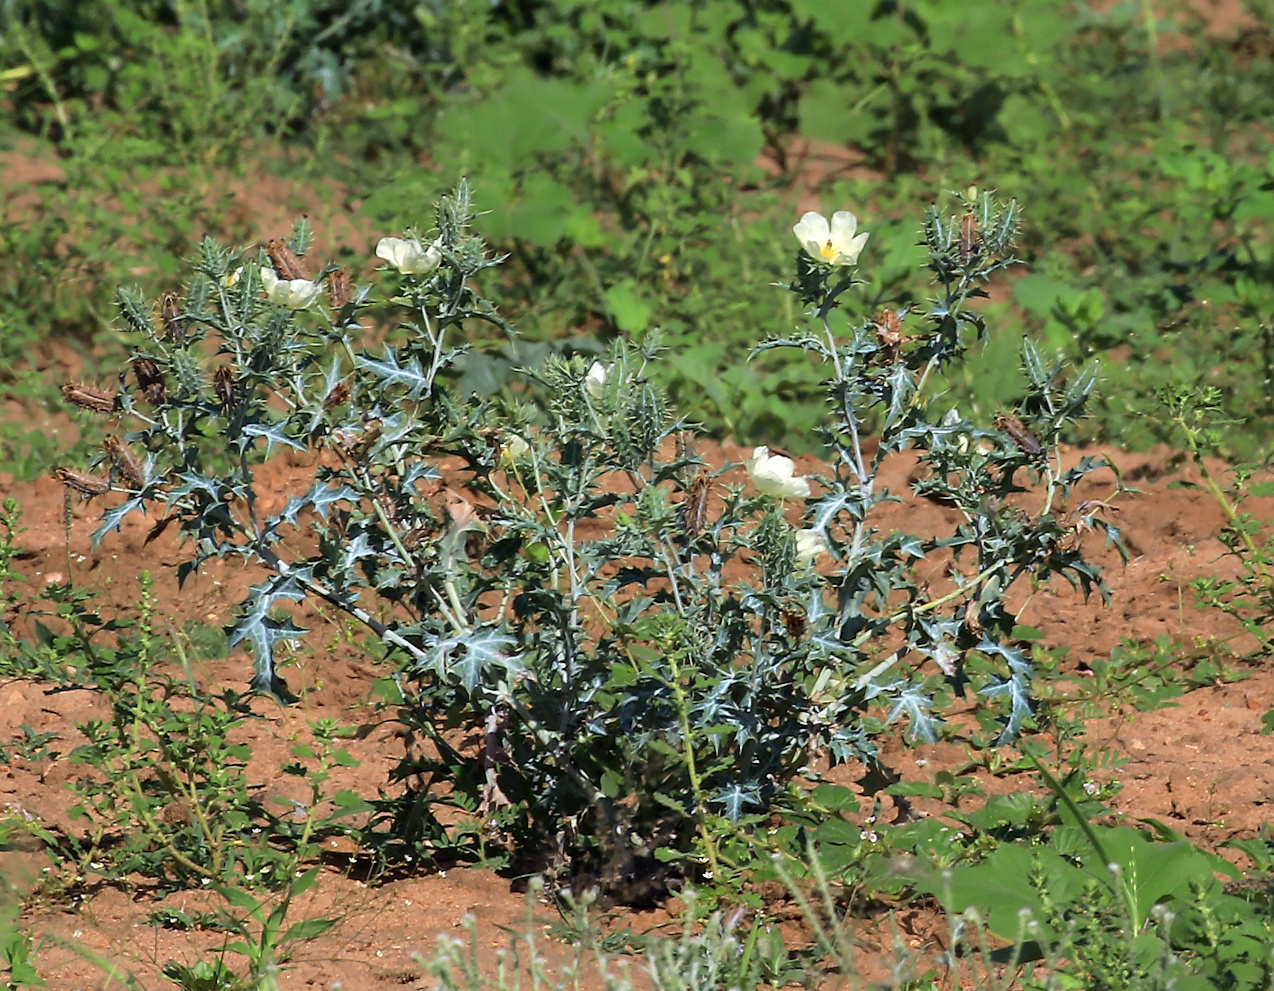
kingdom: Plantae
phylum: Tracheophyta
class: Magnoliopsida
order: Ranunculales
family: Papaveraceae
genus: Argemone
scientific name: Argemone ochroleuca
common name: White-flower mexican-poppy
